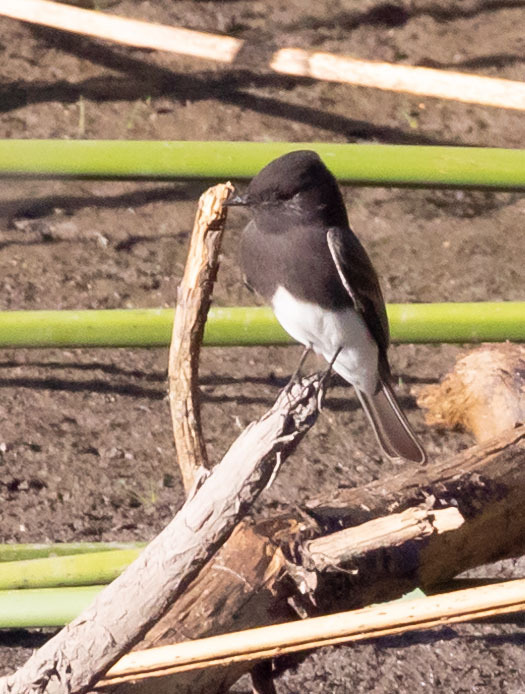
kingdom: Animalia
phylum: Chordata
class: Aves
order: Passeriformes
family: Tyrannidae
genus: Sayornis
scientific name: Sayornis nigricans
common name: Black phoebe
